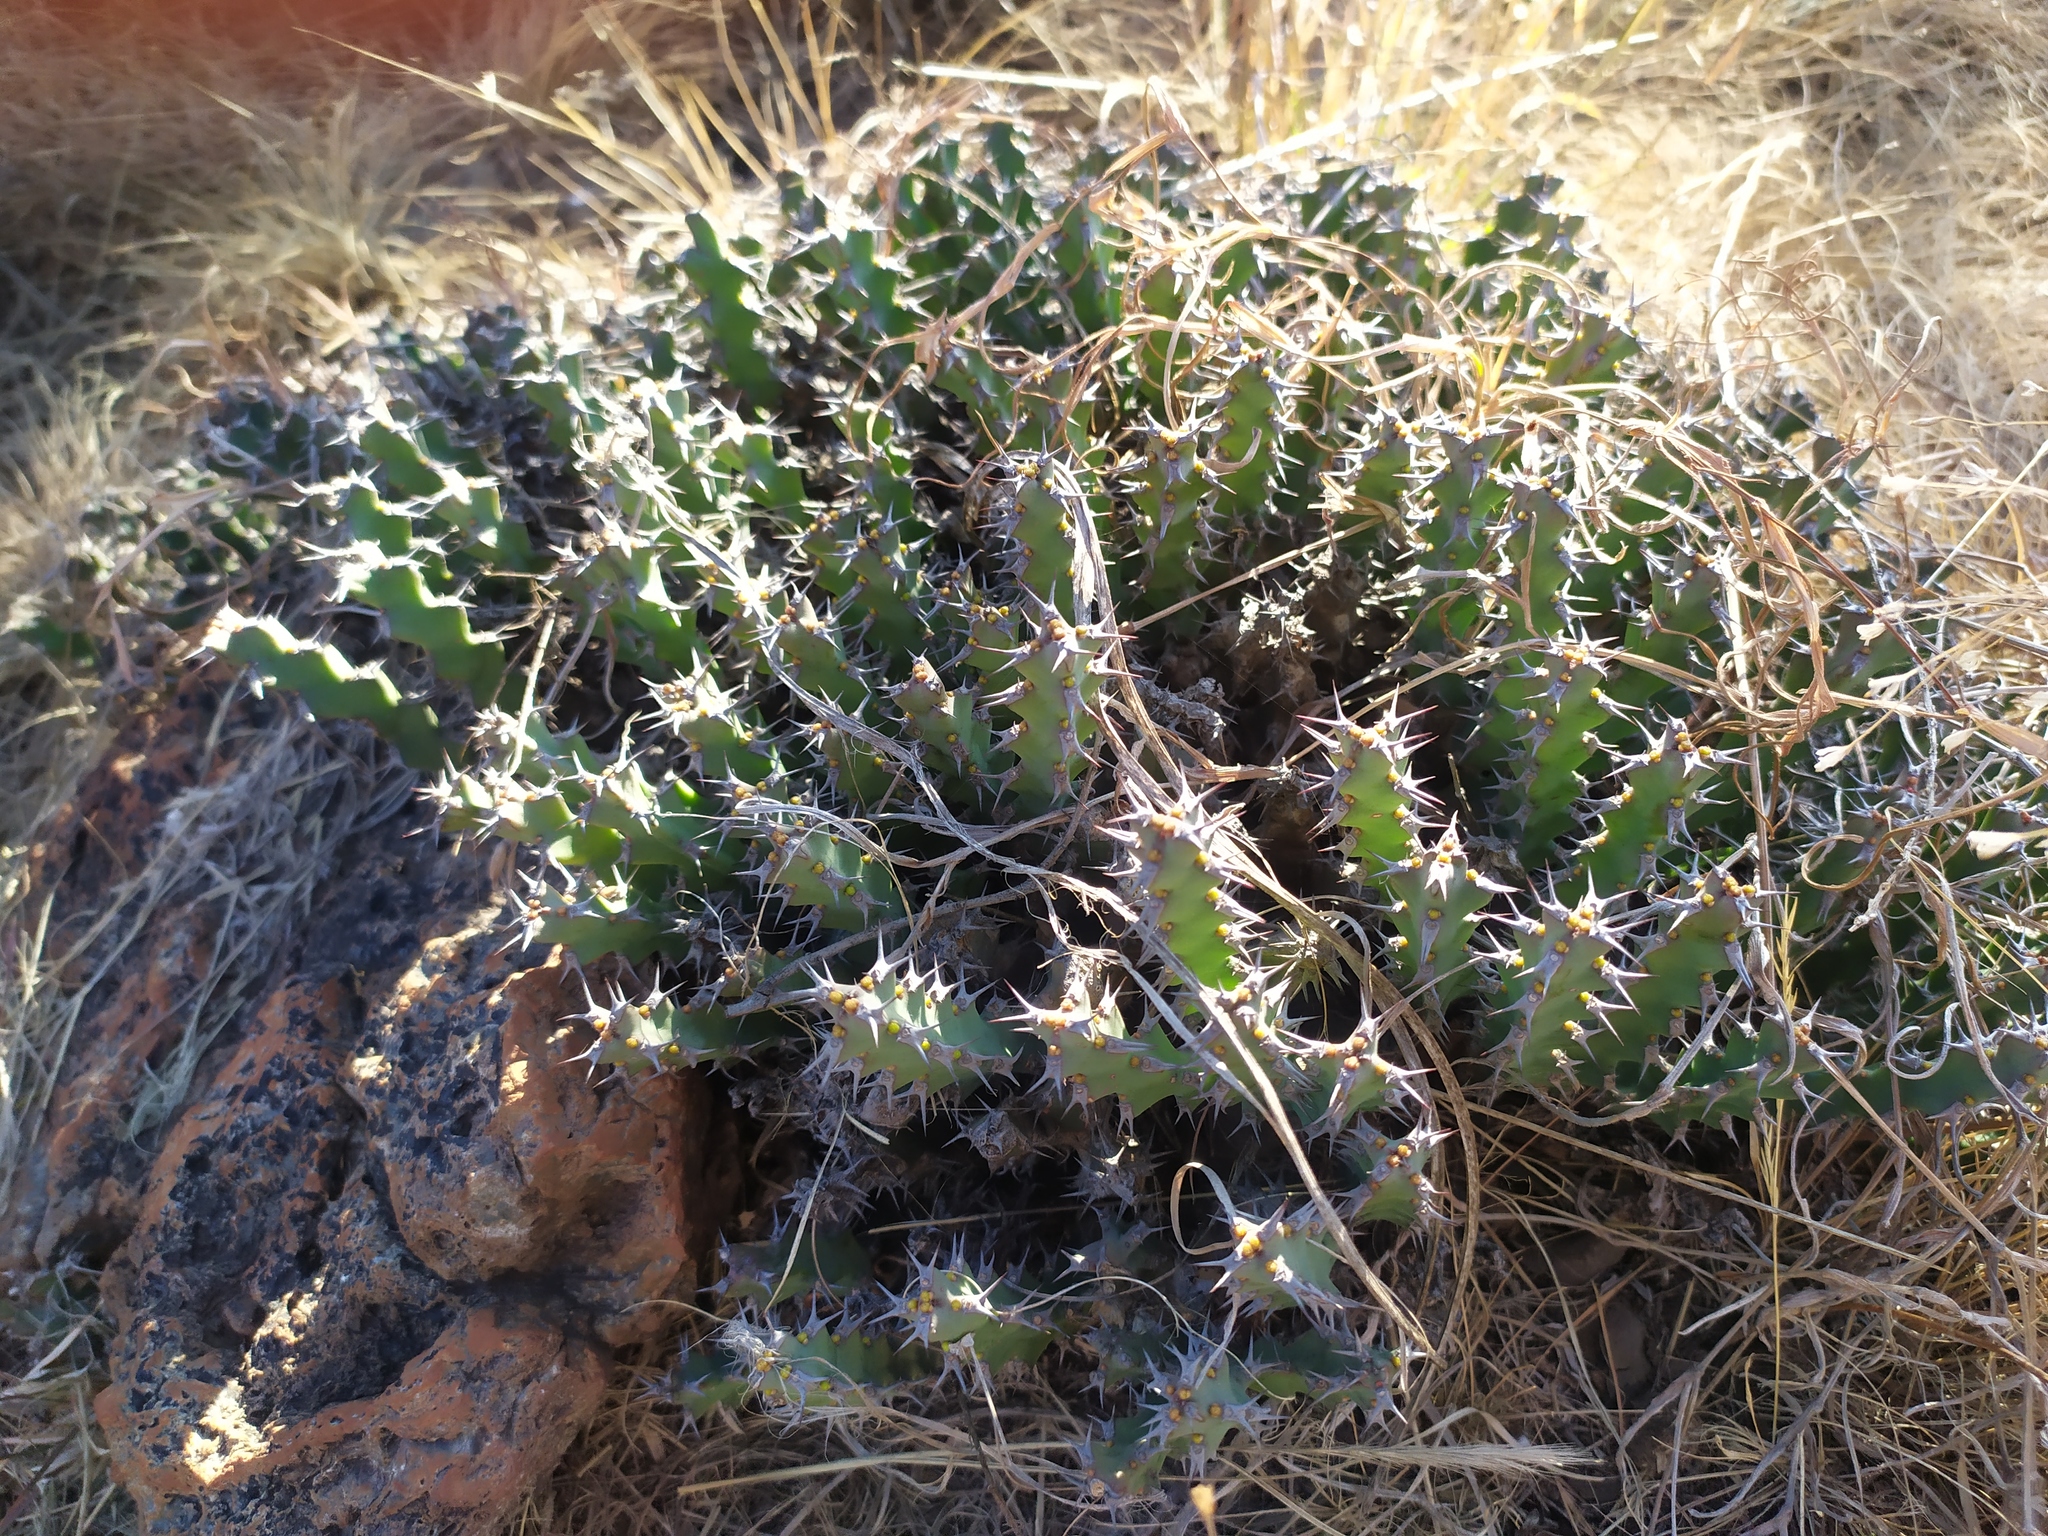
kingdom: Plantae
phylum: Tracheophyta
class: Magnoliopsida
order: Malpighiales
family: Euphorbiaceae
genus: Euphorbia
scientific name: Euphorbia schinzii
